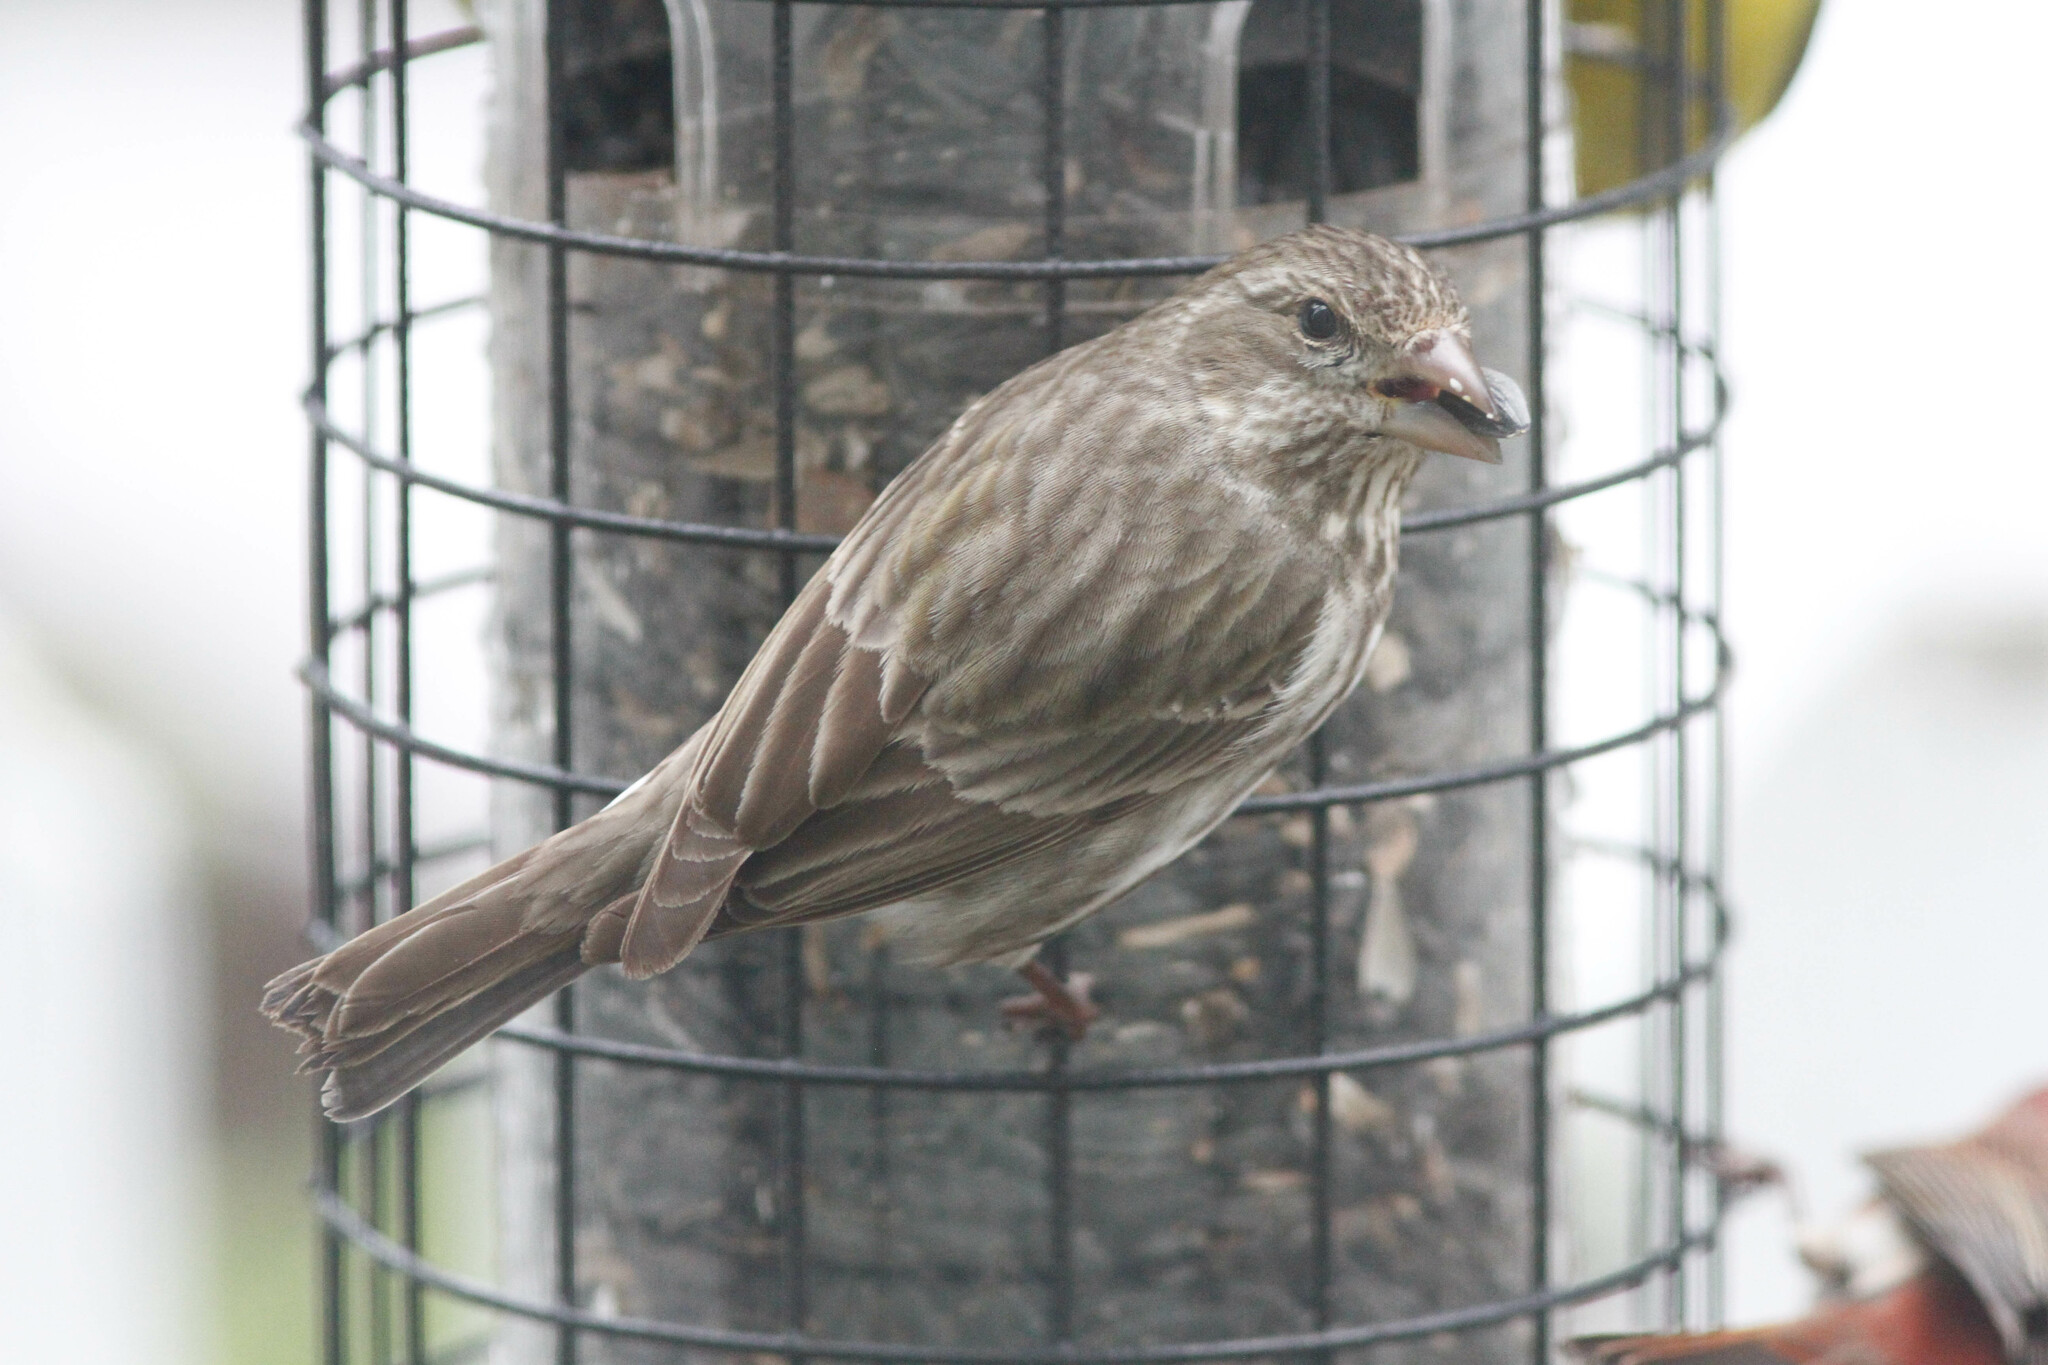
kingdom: Animalia
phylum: Chordata
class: Aves
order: Passeriformes
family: Fringillidae
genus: Haemorhous
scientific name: Haemorhous purpureus
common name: Purple finch
